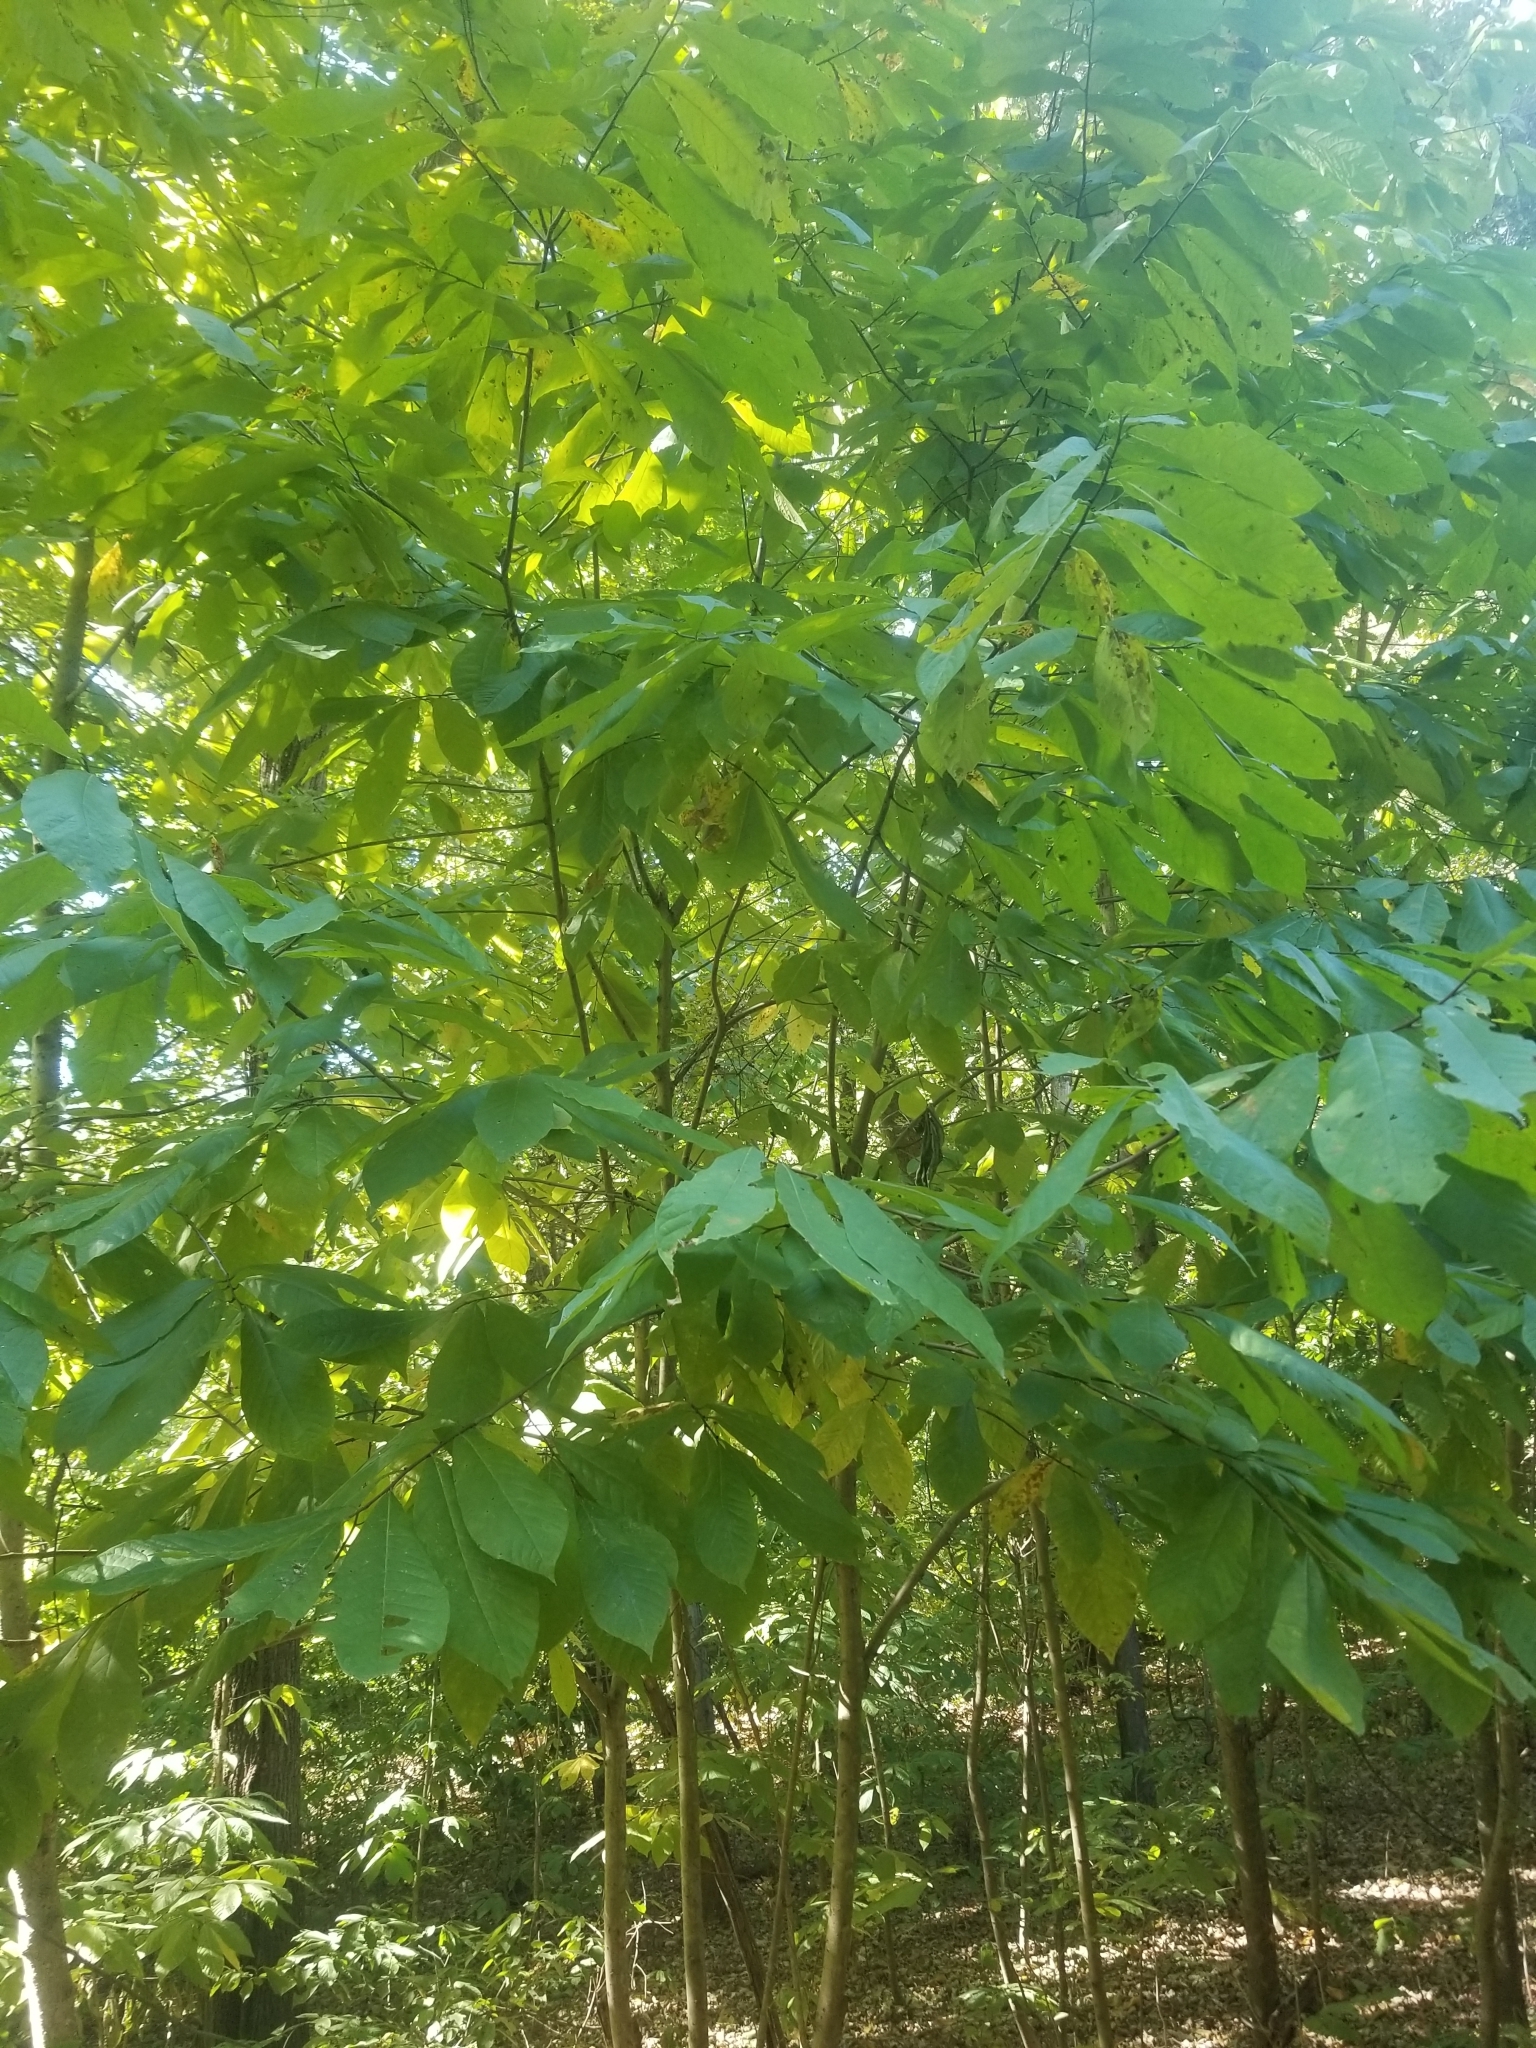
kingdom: Plantae
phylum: Tracheophyta
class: Magnoliopsida
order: Magnoliales
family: Annonaceae
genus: Asimina
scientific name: Asimina triloba
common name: Dog-banana
